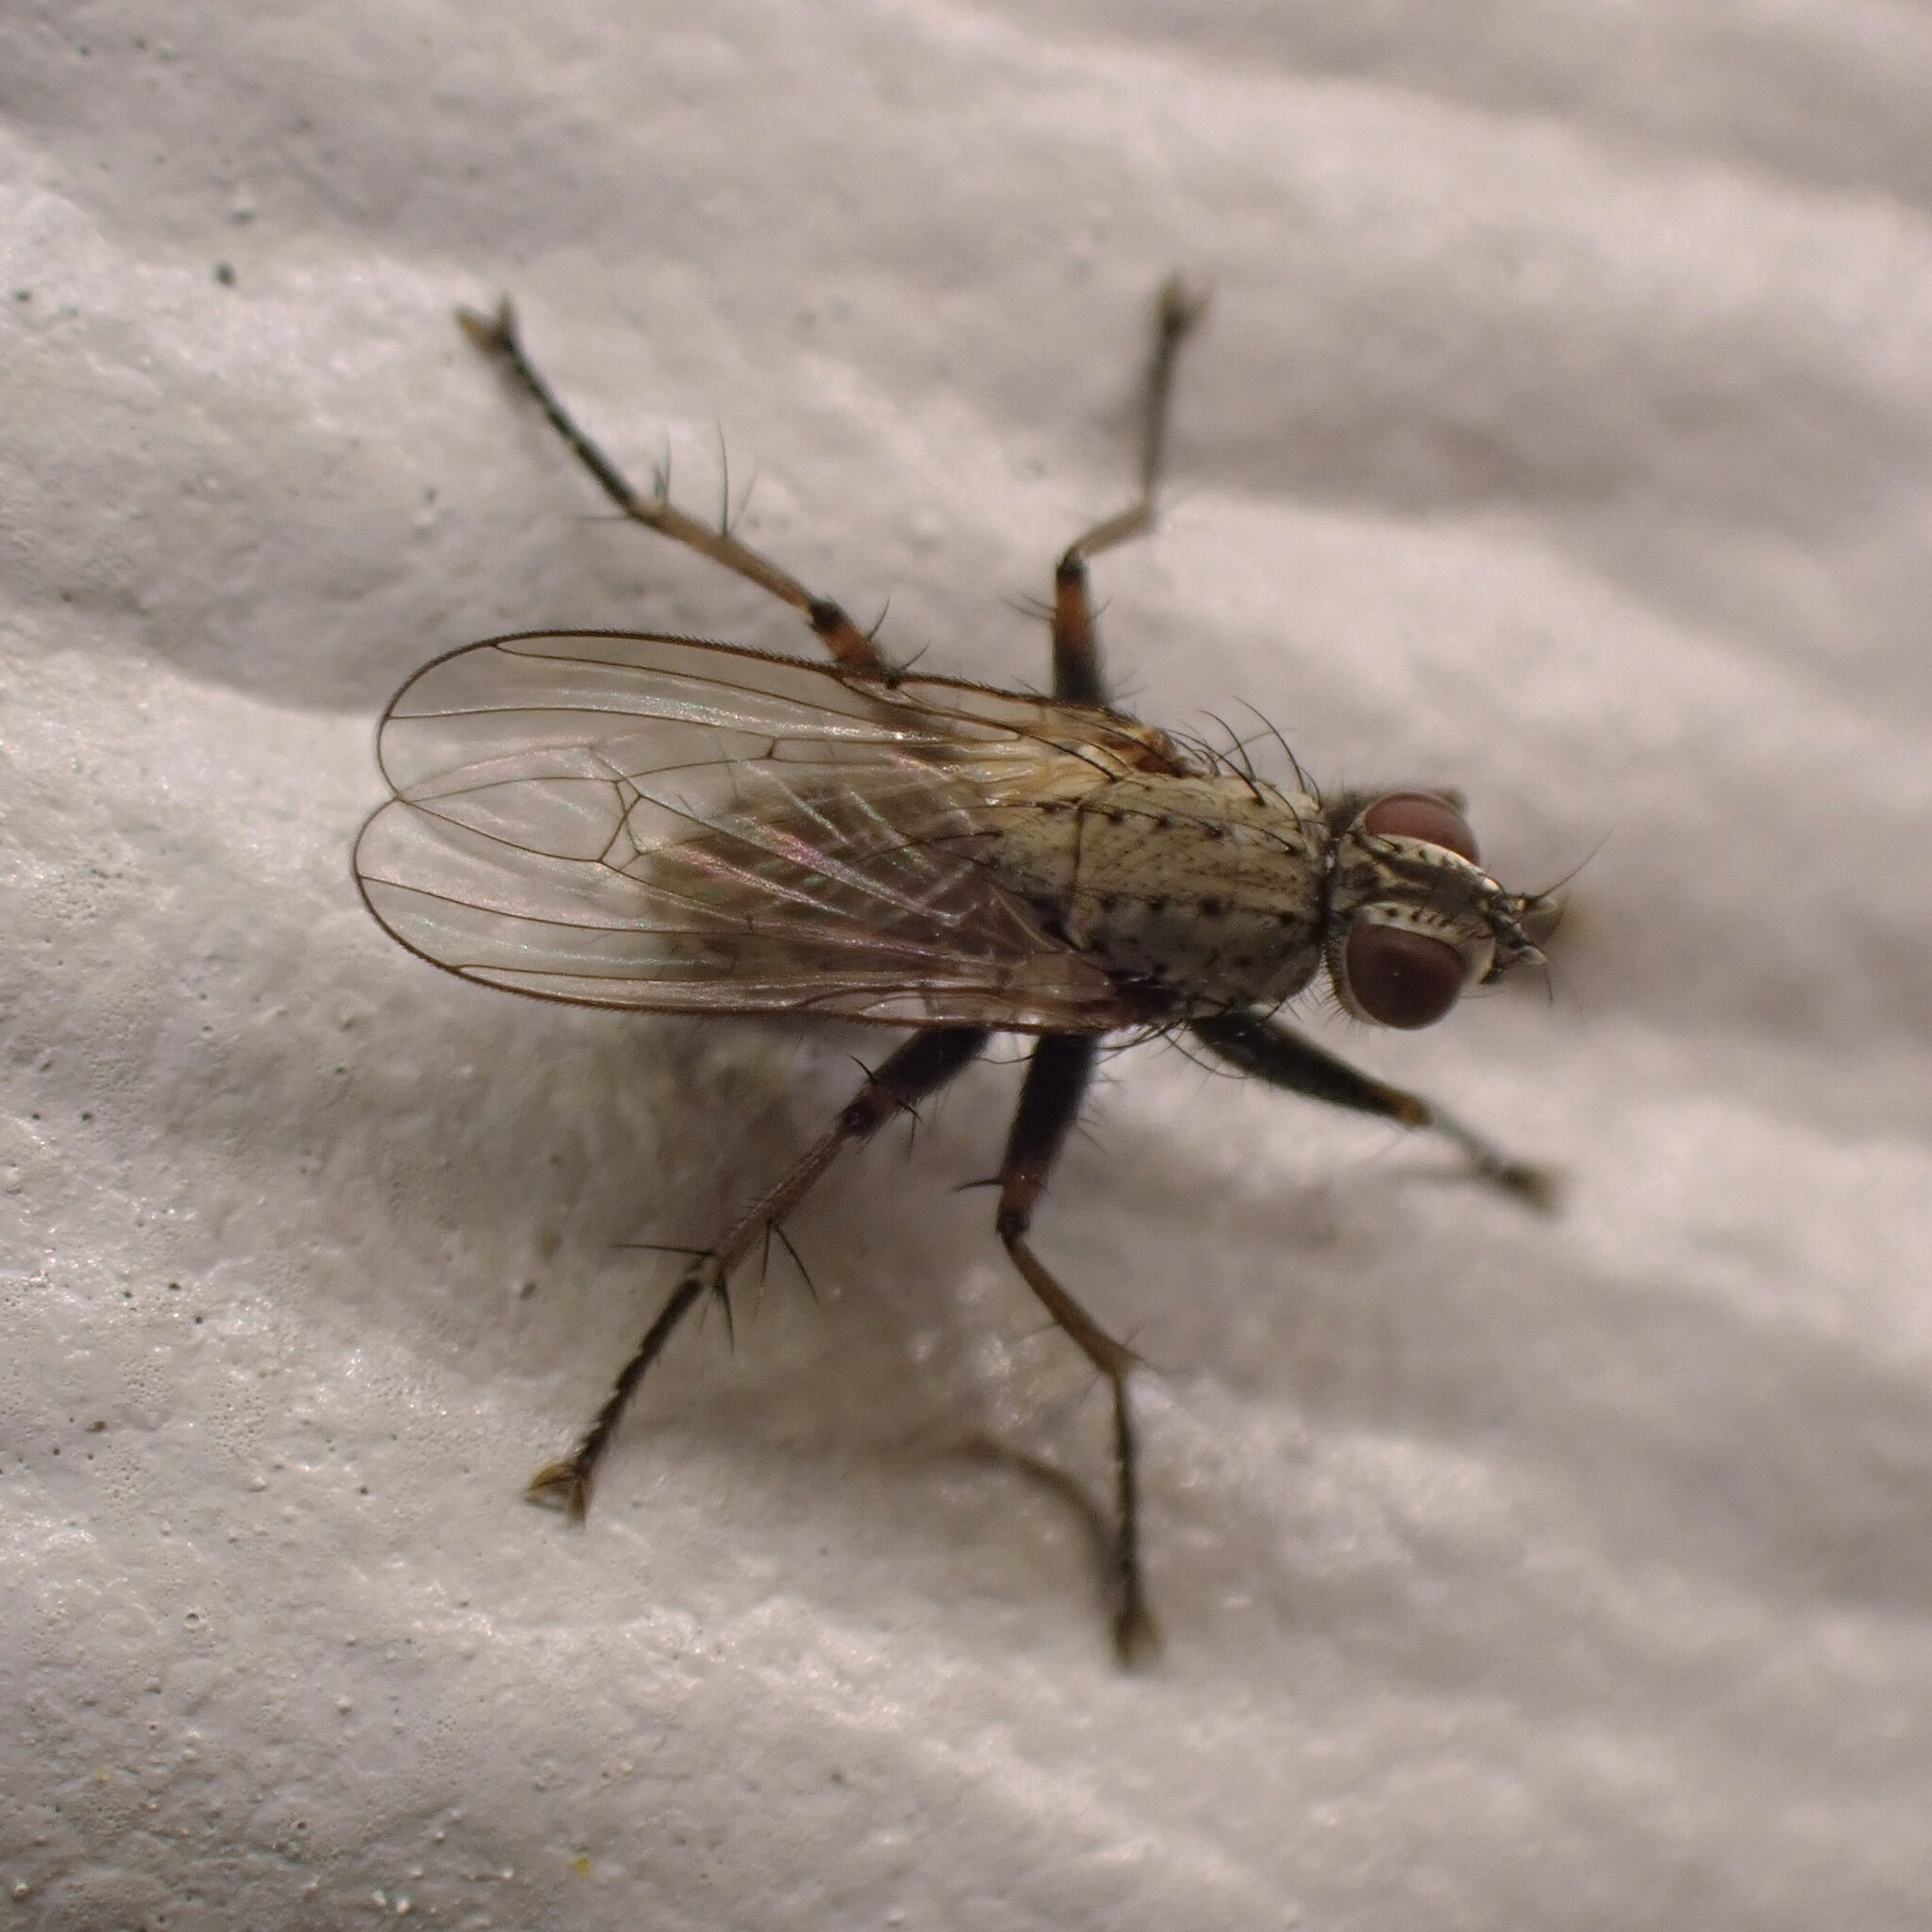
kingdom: Animalia
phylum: Arthropoda
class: Insecta
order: Diptera
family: Muscidae
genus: Coenosia
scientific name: Coenosia tigrina
